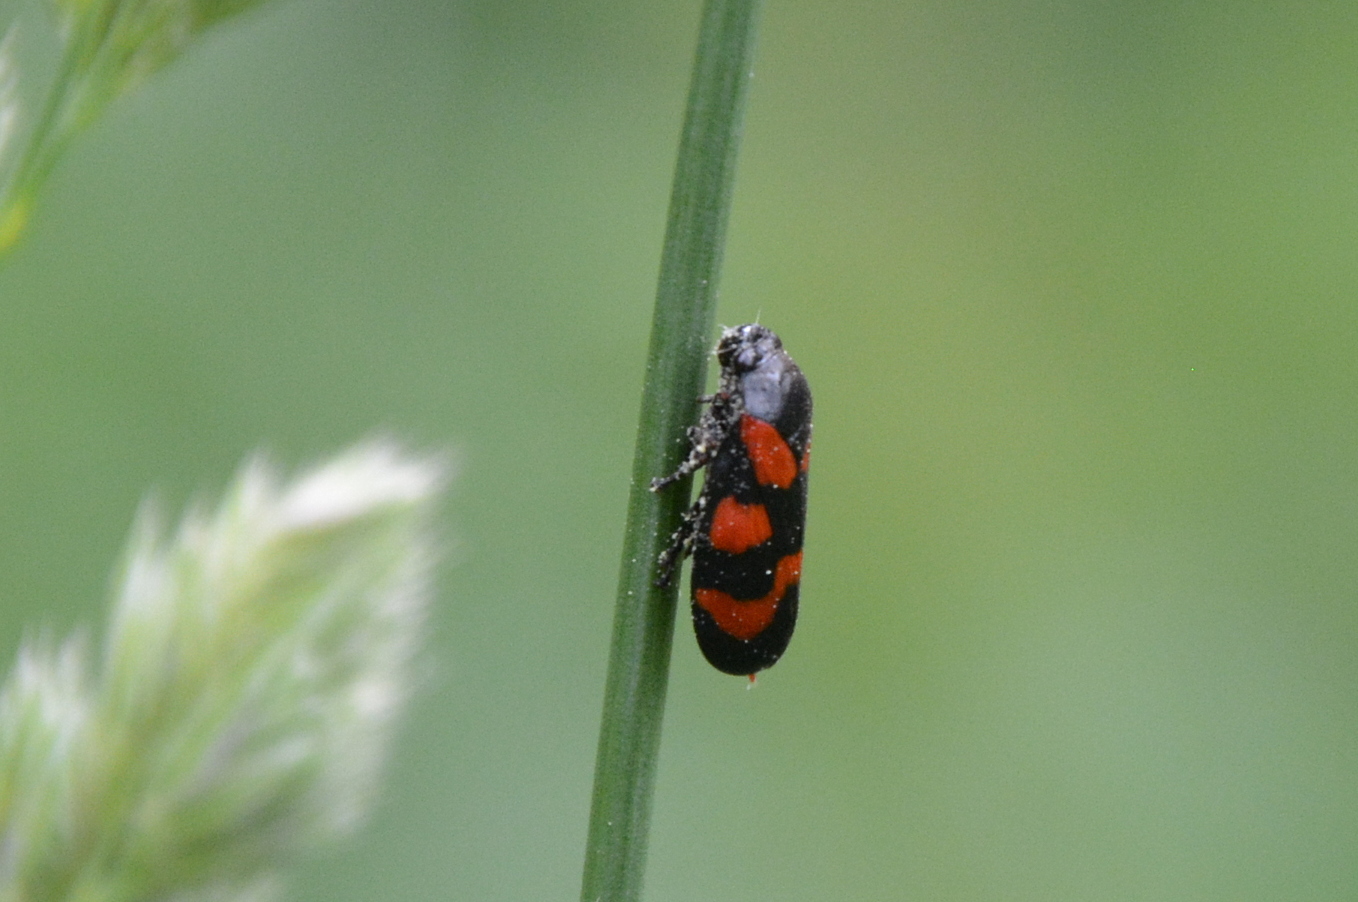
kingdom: Animalia
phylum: Arthropoda
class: Insecta
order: Hemiptera
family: Cercopidae
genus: Cercopis
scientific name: Cercopis vulnerata
